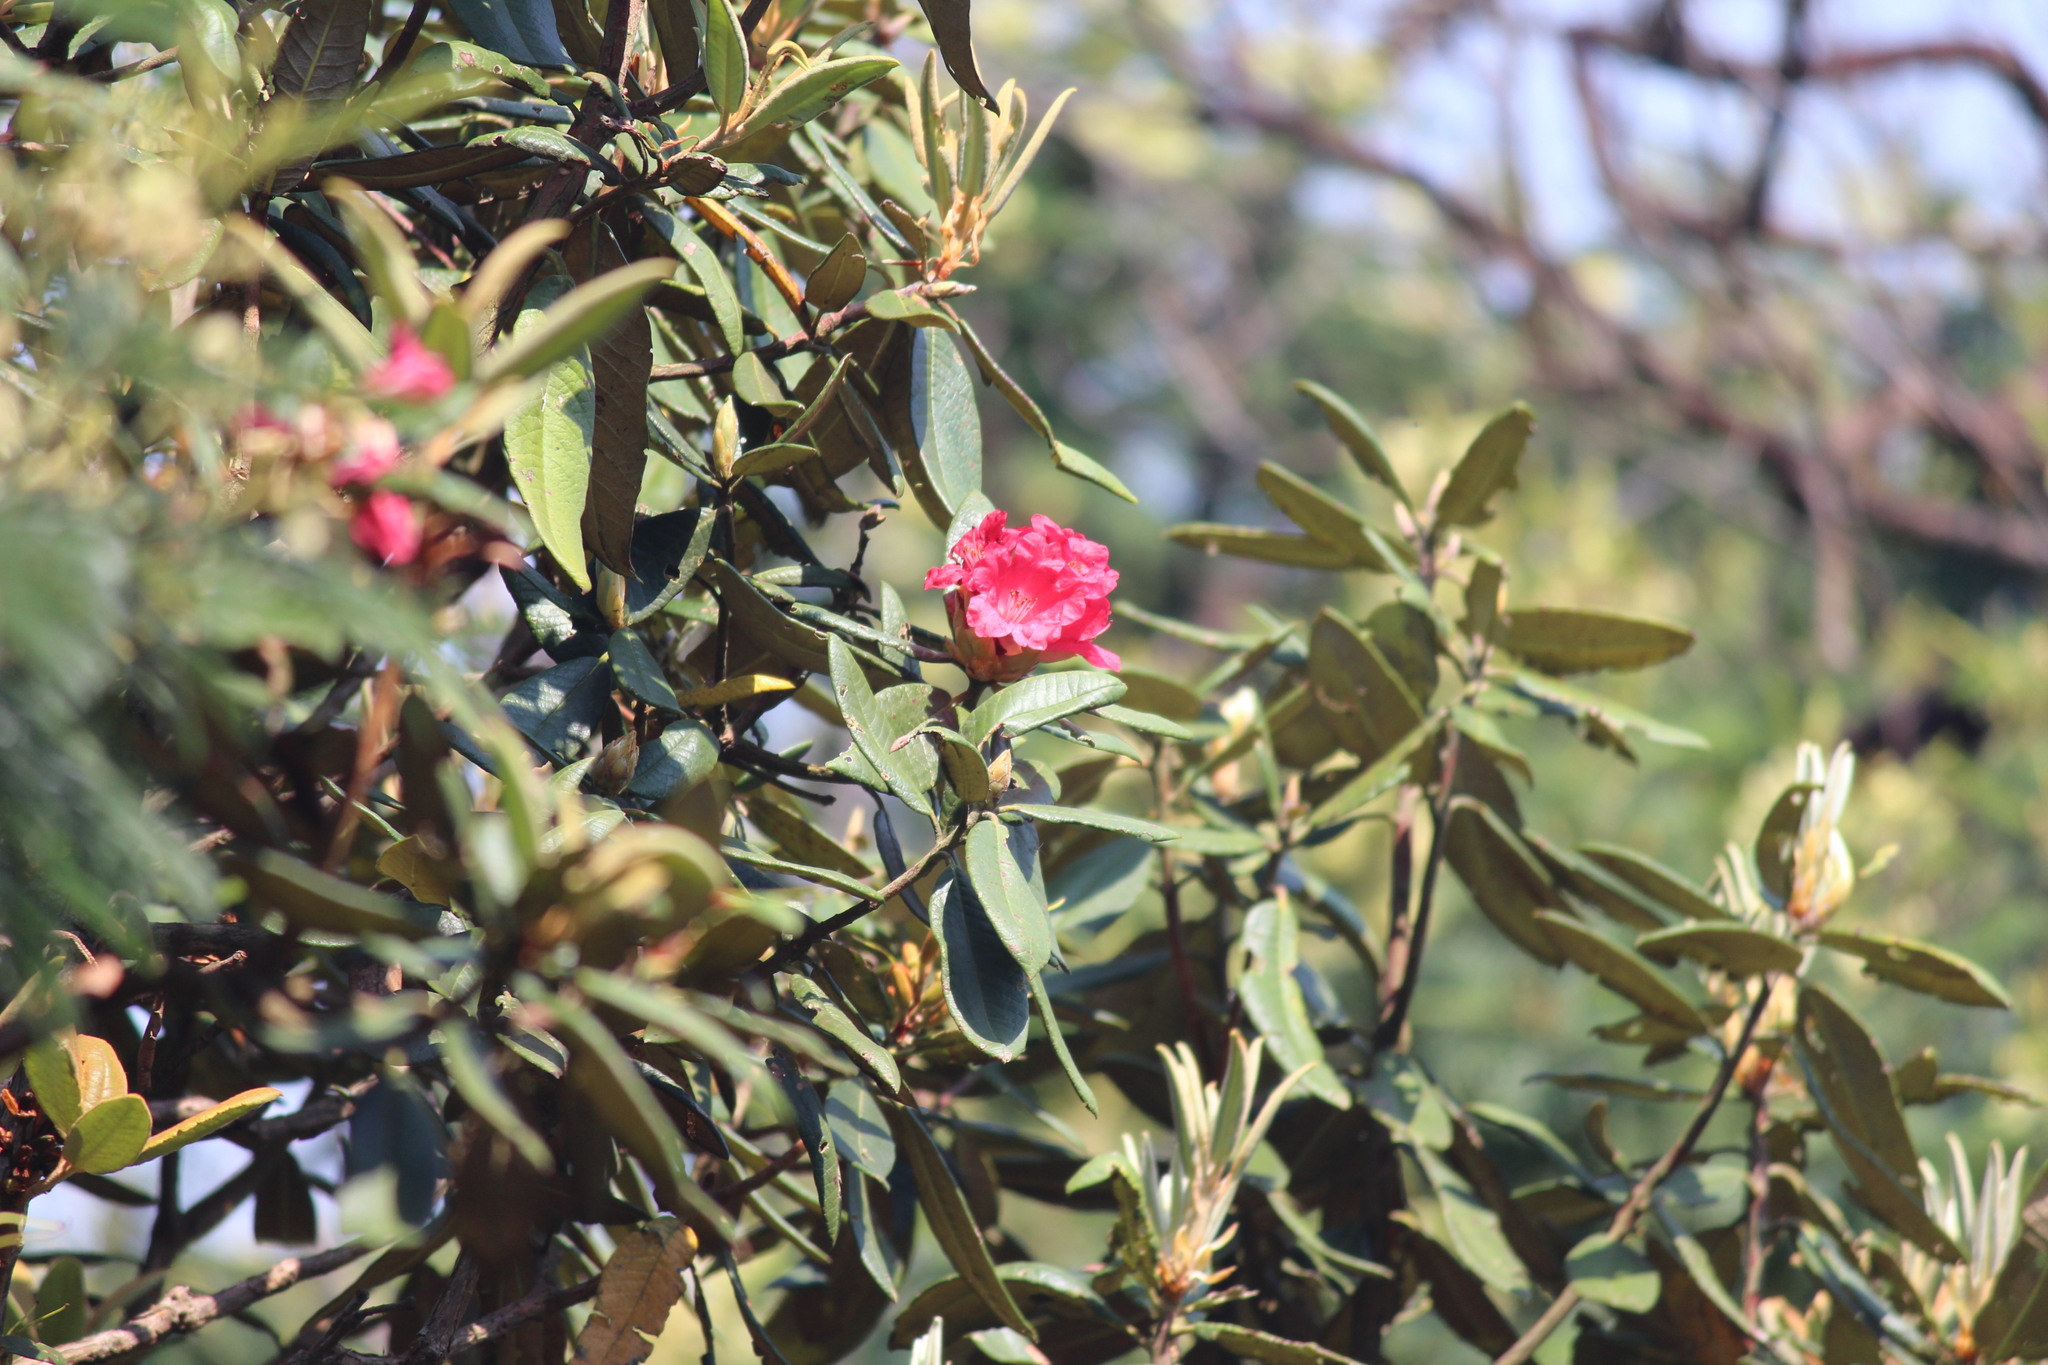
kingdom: Plantae
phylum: Tracheophyta
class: Magnoliopsida
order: Ericales
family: Ericaceae
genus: Rhododendron
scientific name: Rhododendron arboreum
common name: Tree rhododendron
